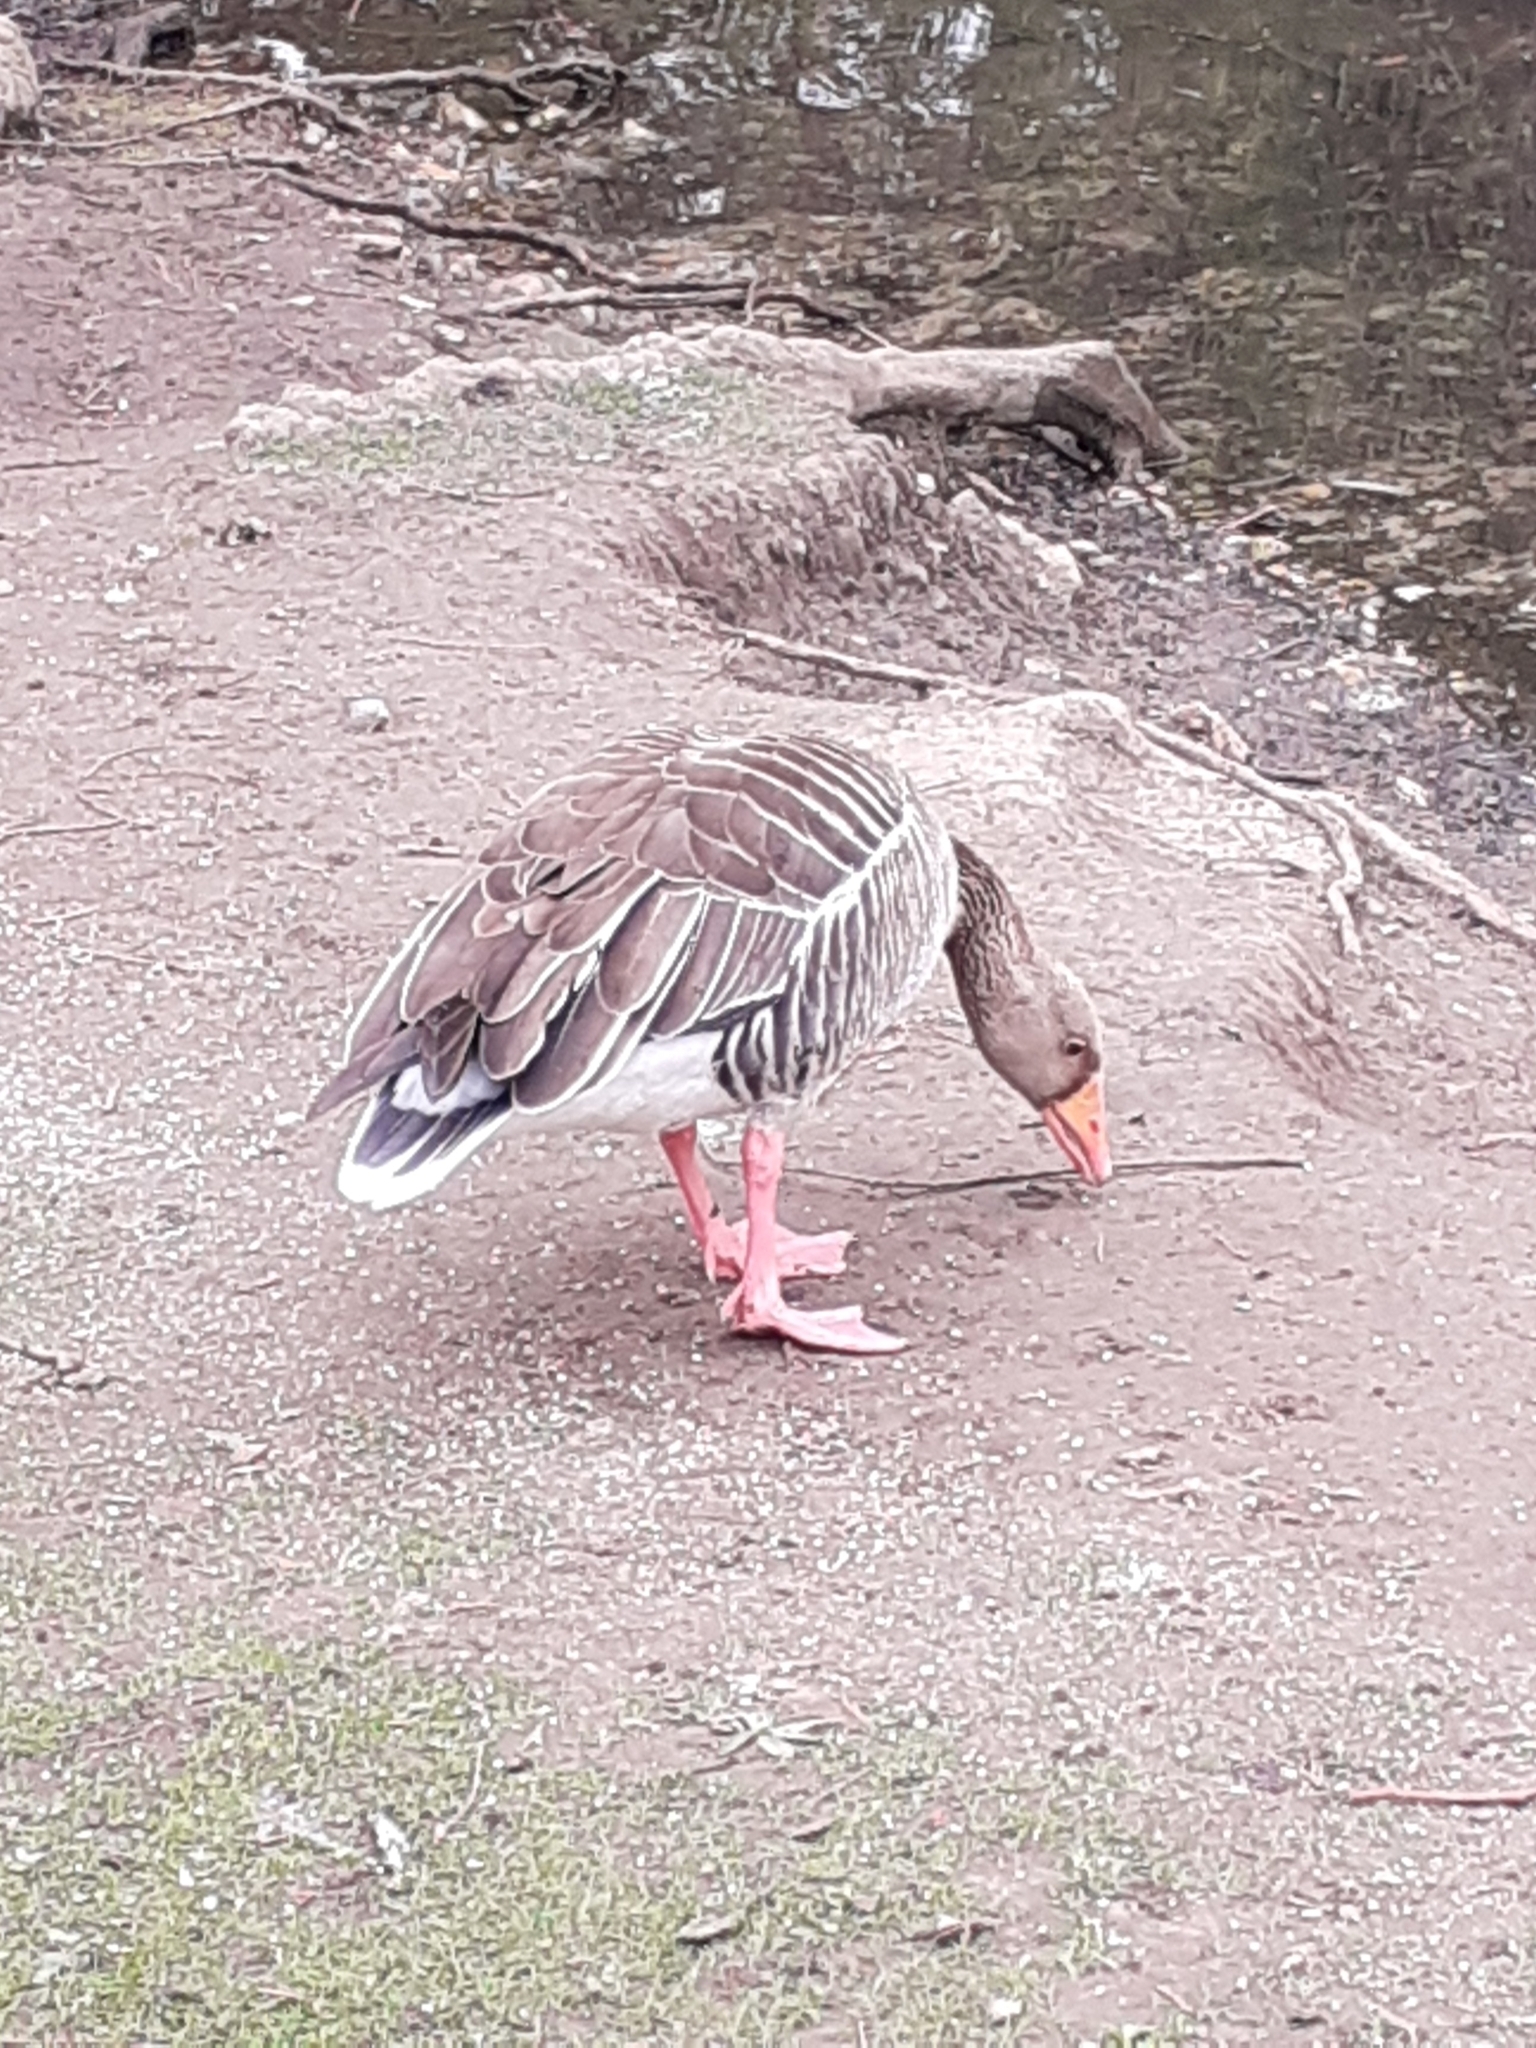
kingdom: Animalia
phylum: Chordata
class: Aves
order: Anseriformes
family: Anatidae
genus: Anser
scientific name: Anser anser
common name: Greylag goose
